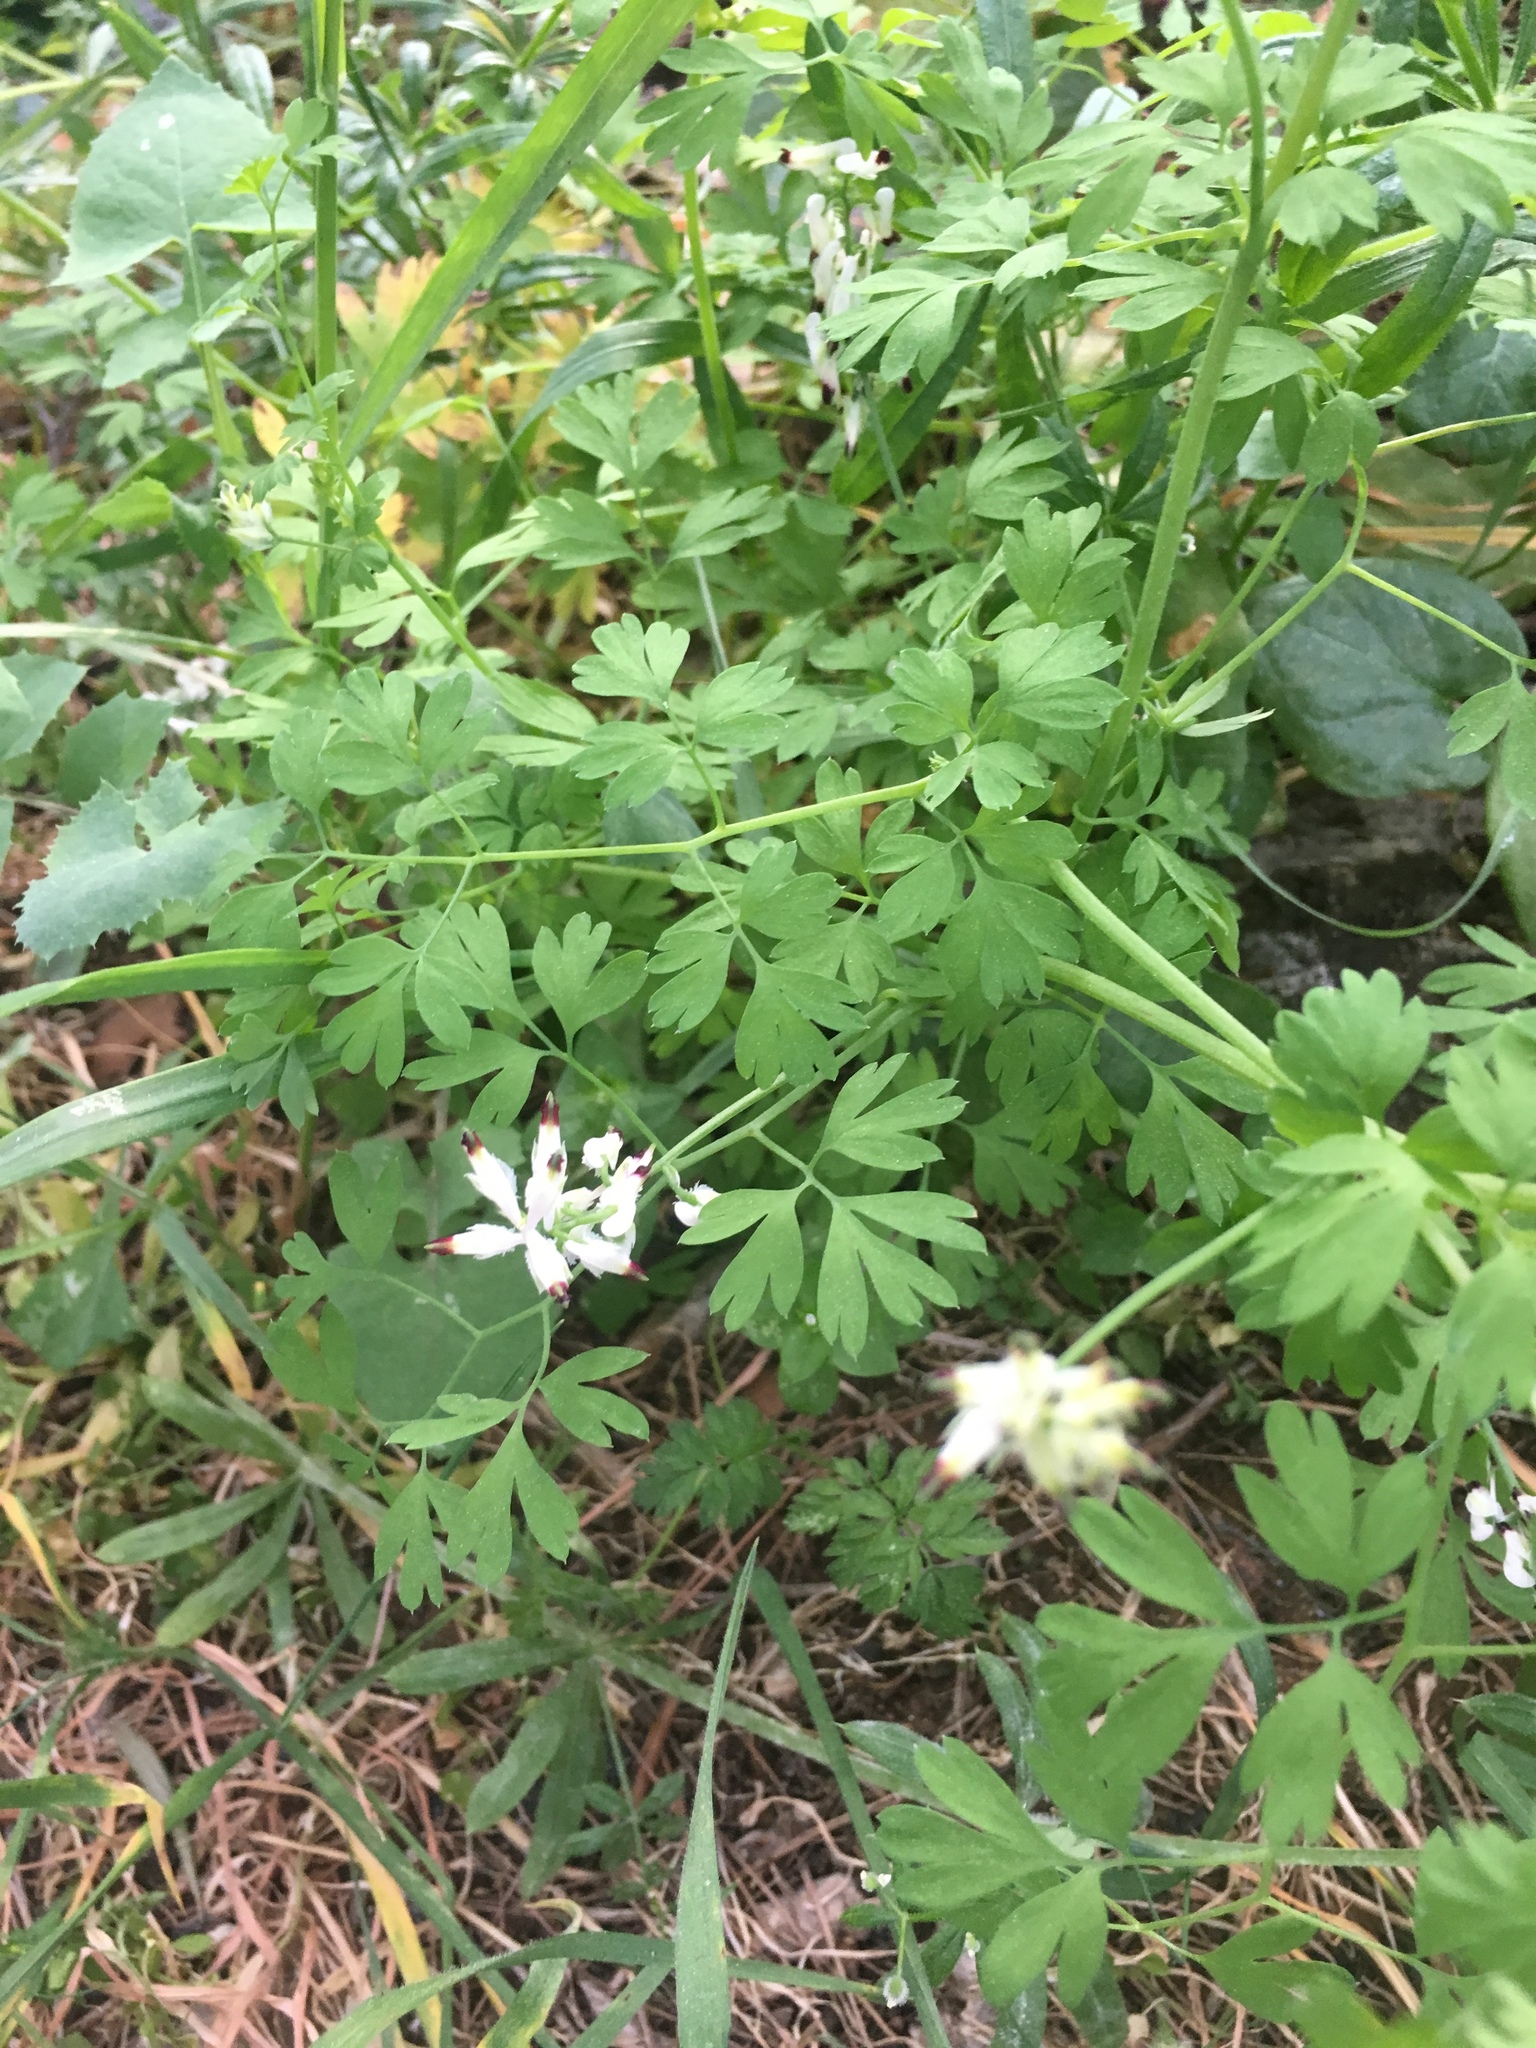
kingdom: Plantae
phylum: Tracheophyta
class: Magnoliopsida
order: Ranunculales
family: Papaveraceae
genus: Fumaria
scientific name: Fumaria capreolata
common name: White ramping-fumitory
